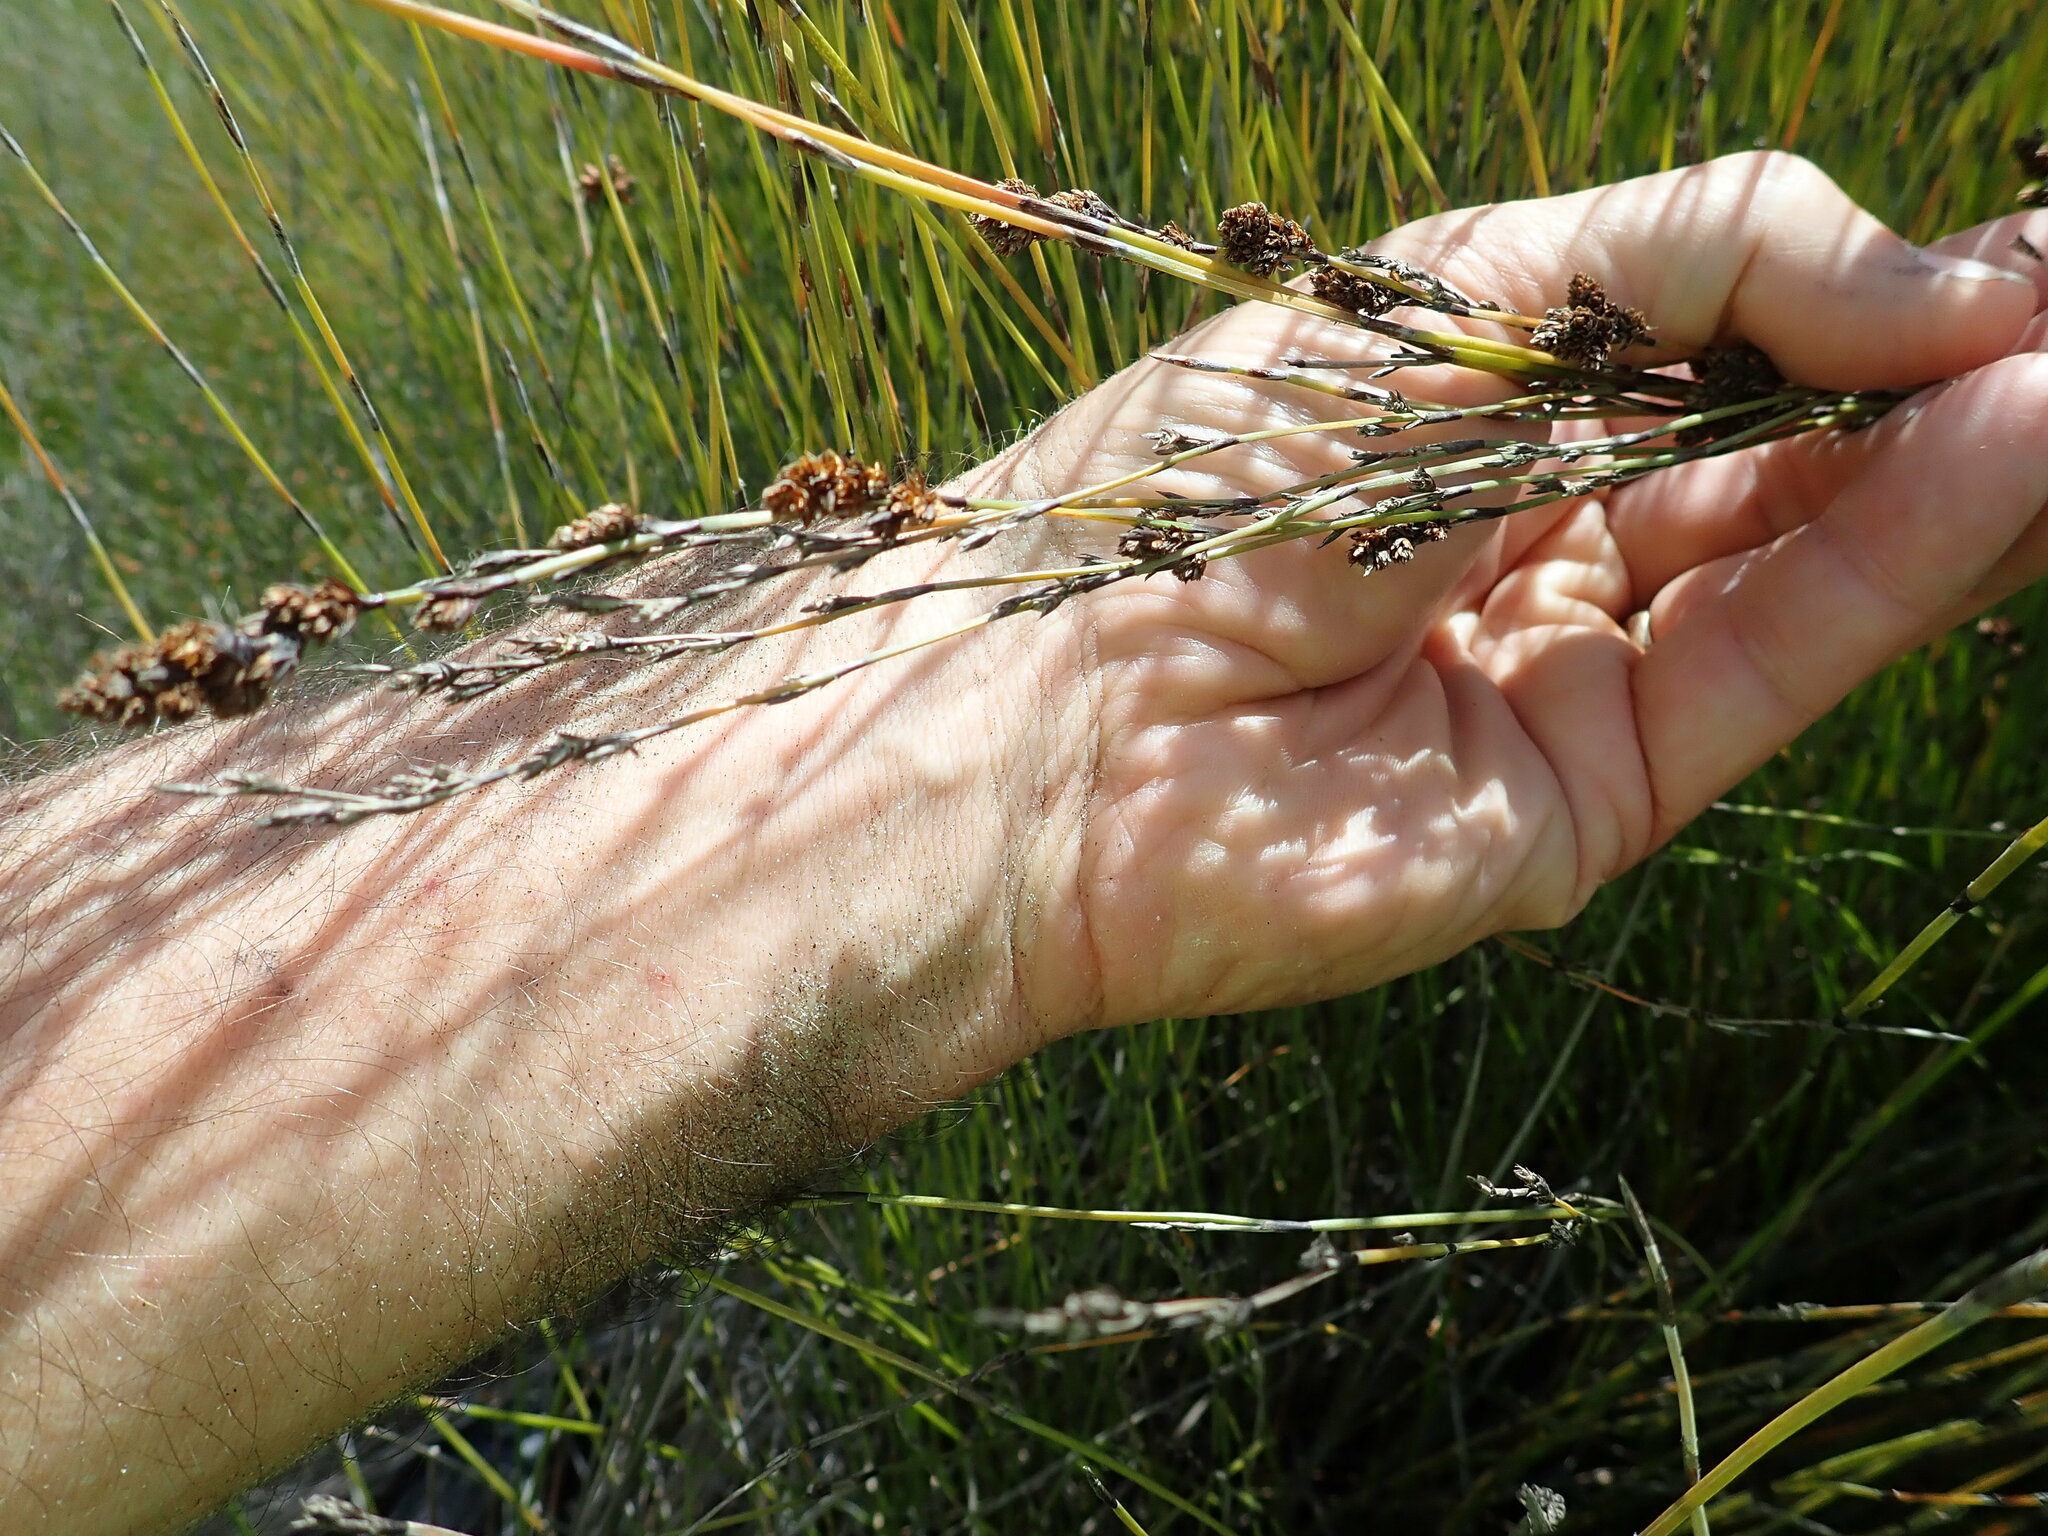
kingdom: Plantae
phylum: Tracheophyta
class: Liliopsida
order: Poales
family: Restionaceae
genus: Apodasmia
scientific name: Apodasmia similis
